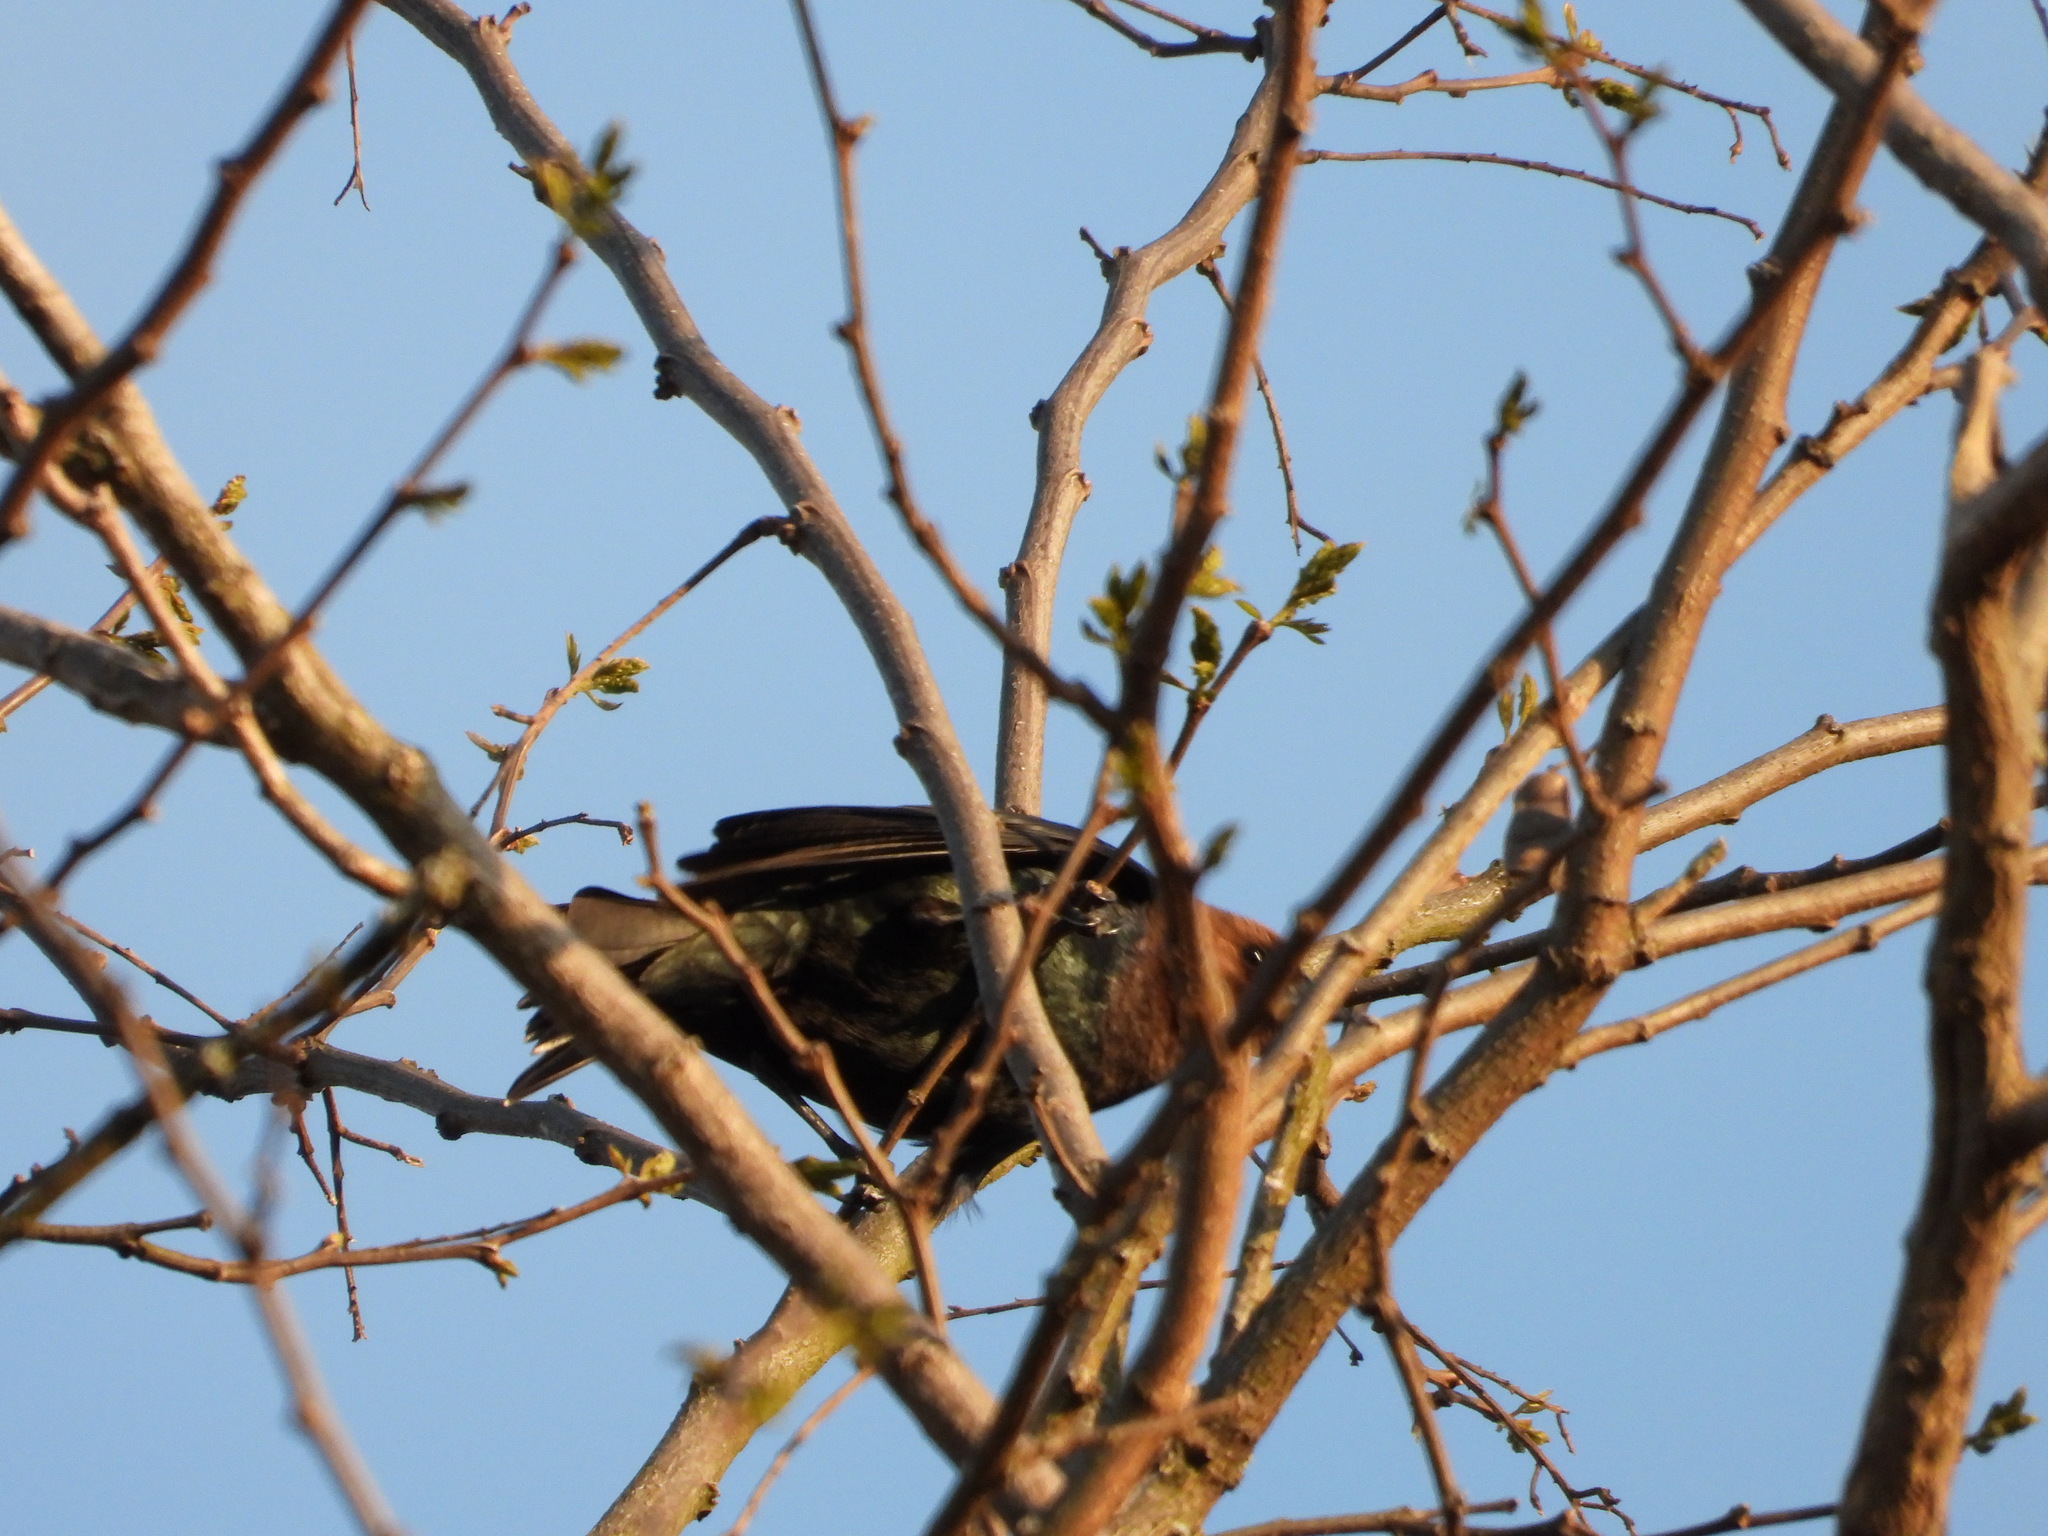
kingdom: Animalia
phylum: Chordata
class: Aves
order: Passeriformes
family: Icteridae
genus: Molothrus
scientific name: Molothrus ater
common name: Brown-headed cowbird
